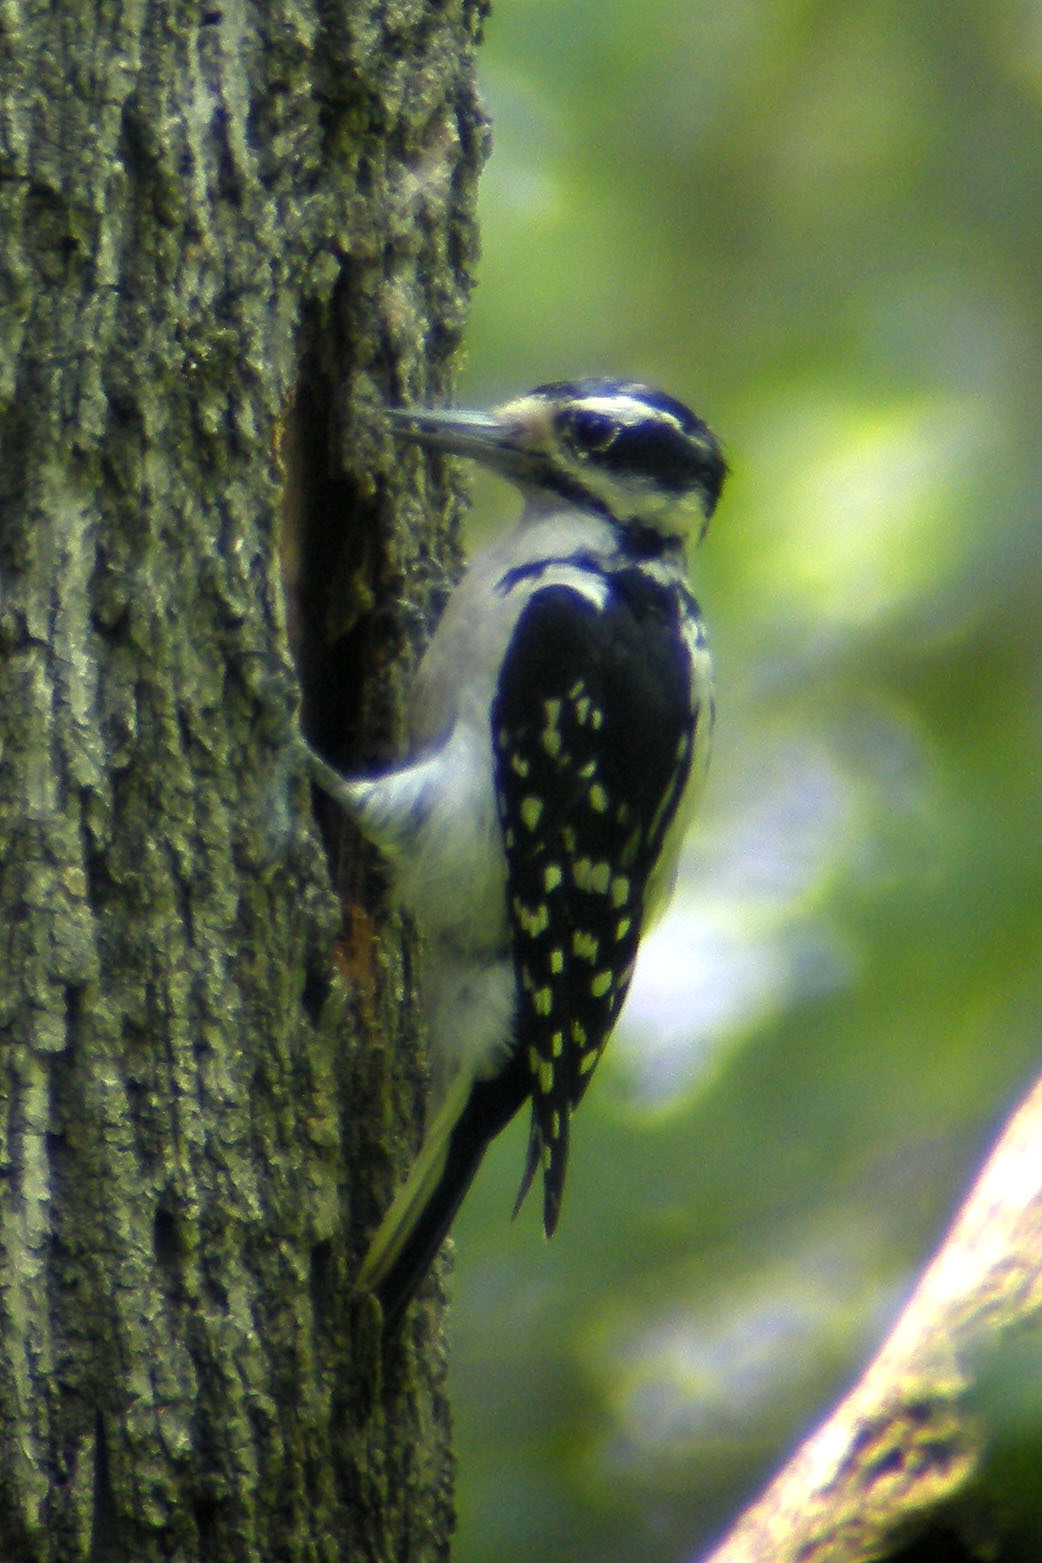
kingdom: Animalia
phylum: Chordata
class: Aves
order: Piciformes
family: Picidae
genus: Leuconotopicus
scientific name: Leuconotopicus villosus
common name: Hairy woodpecker
